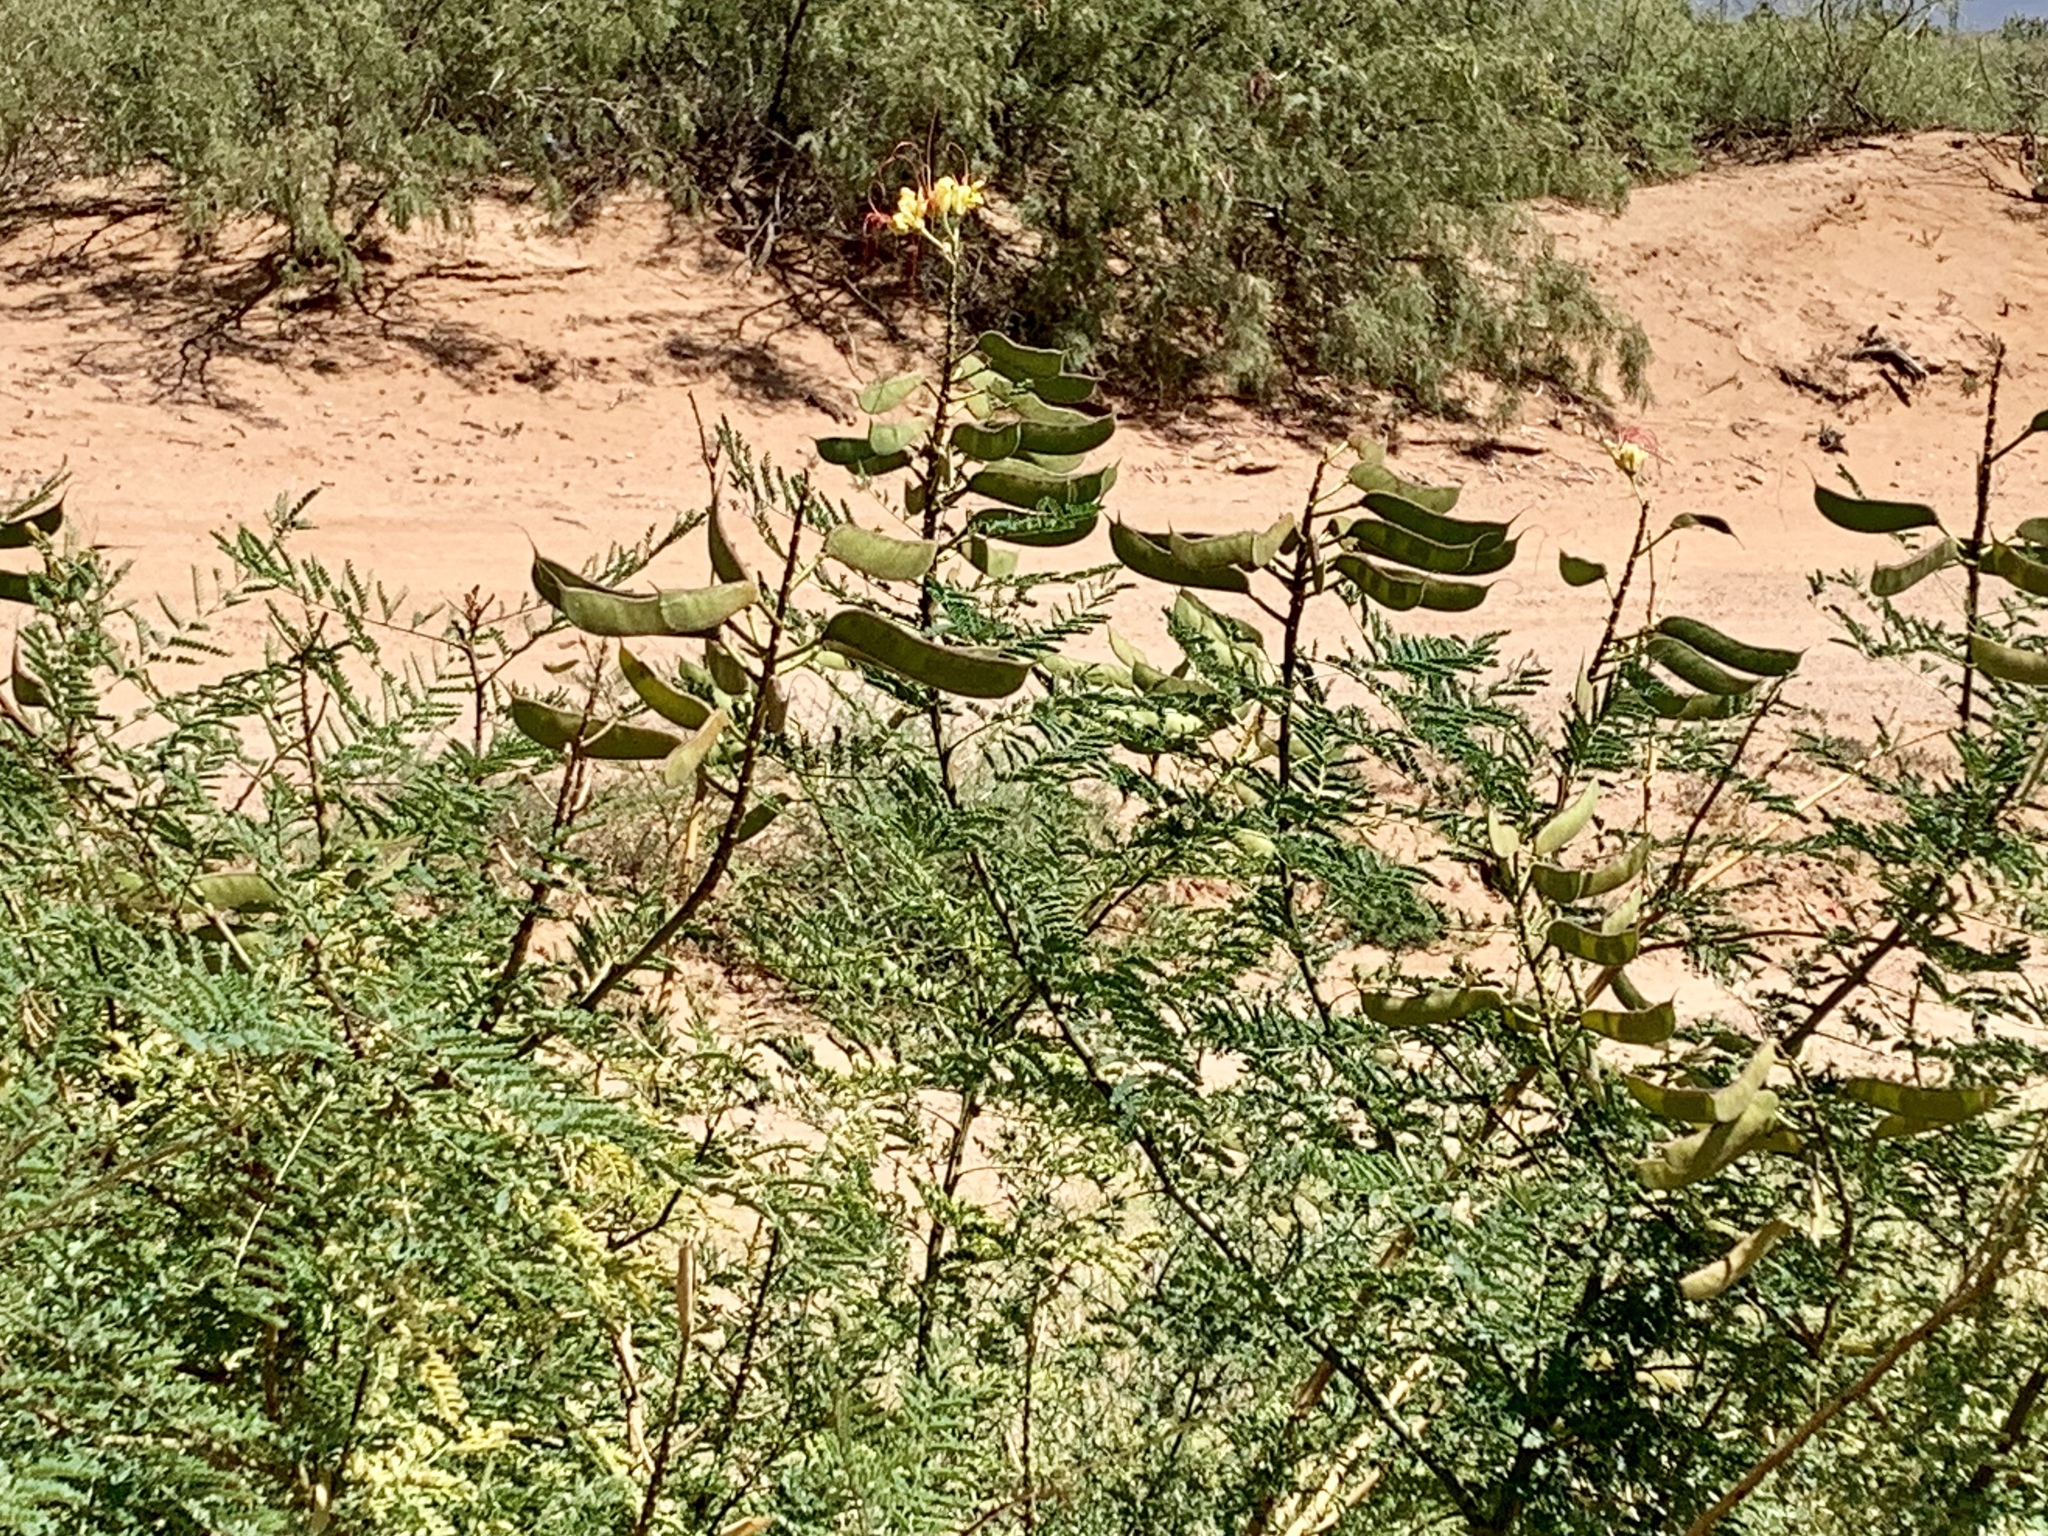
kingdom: Plantae
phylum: Tracheophyta
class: Magnoliopsida
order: Fabales
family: Fabaceae
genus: Erythrostemon
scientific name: Erythrostemon gilliesii
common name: Bird-of-paradise shrub
